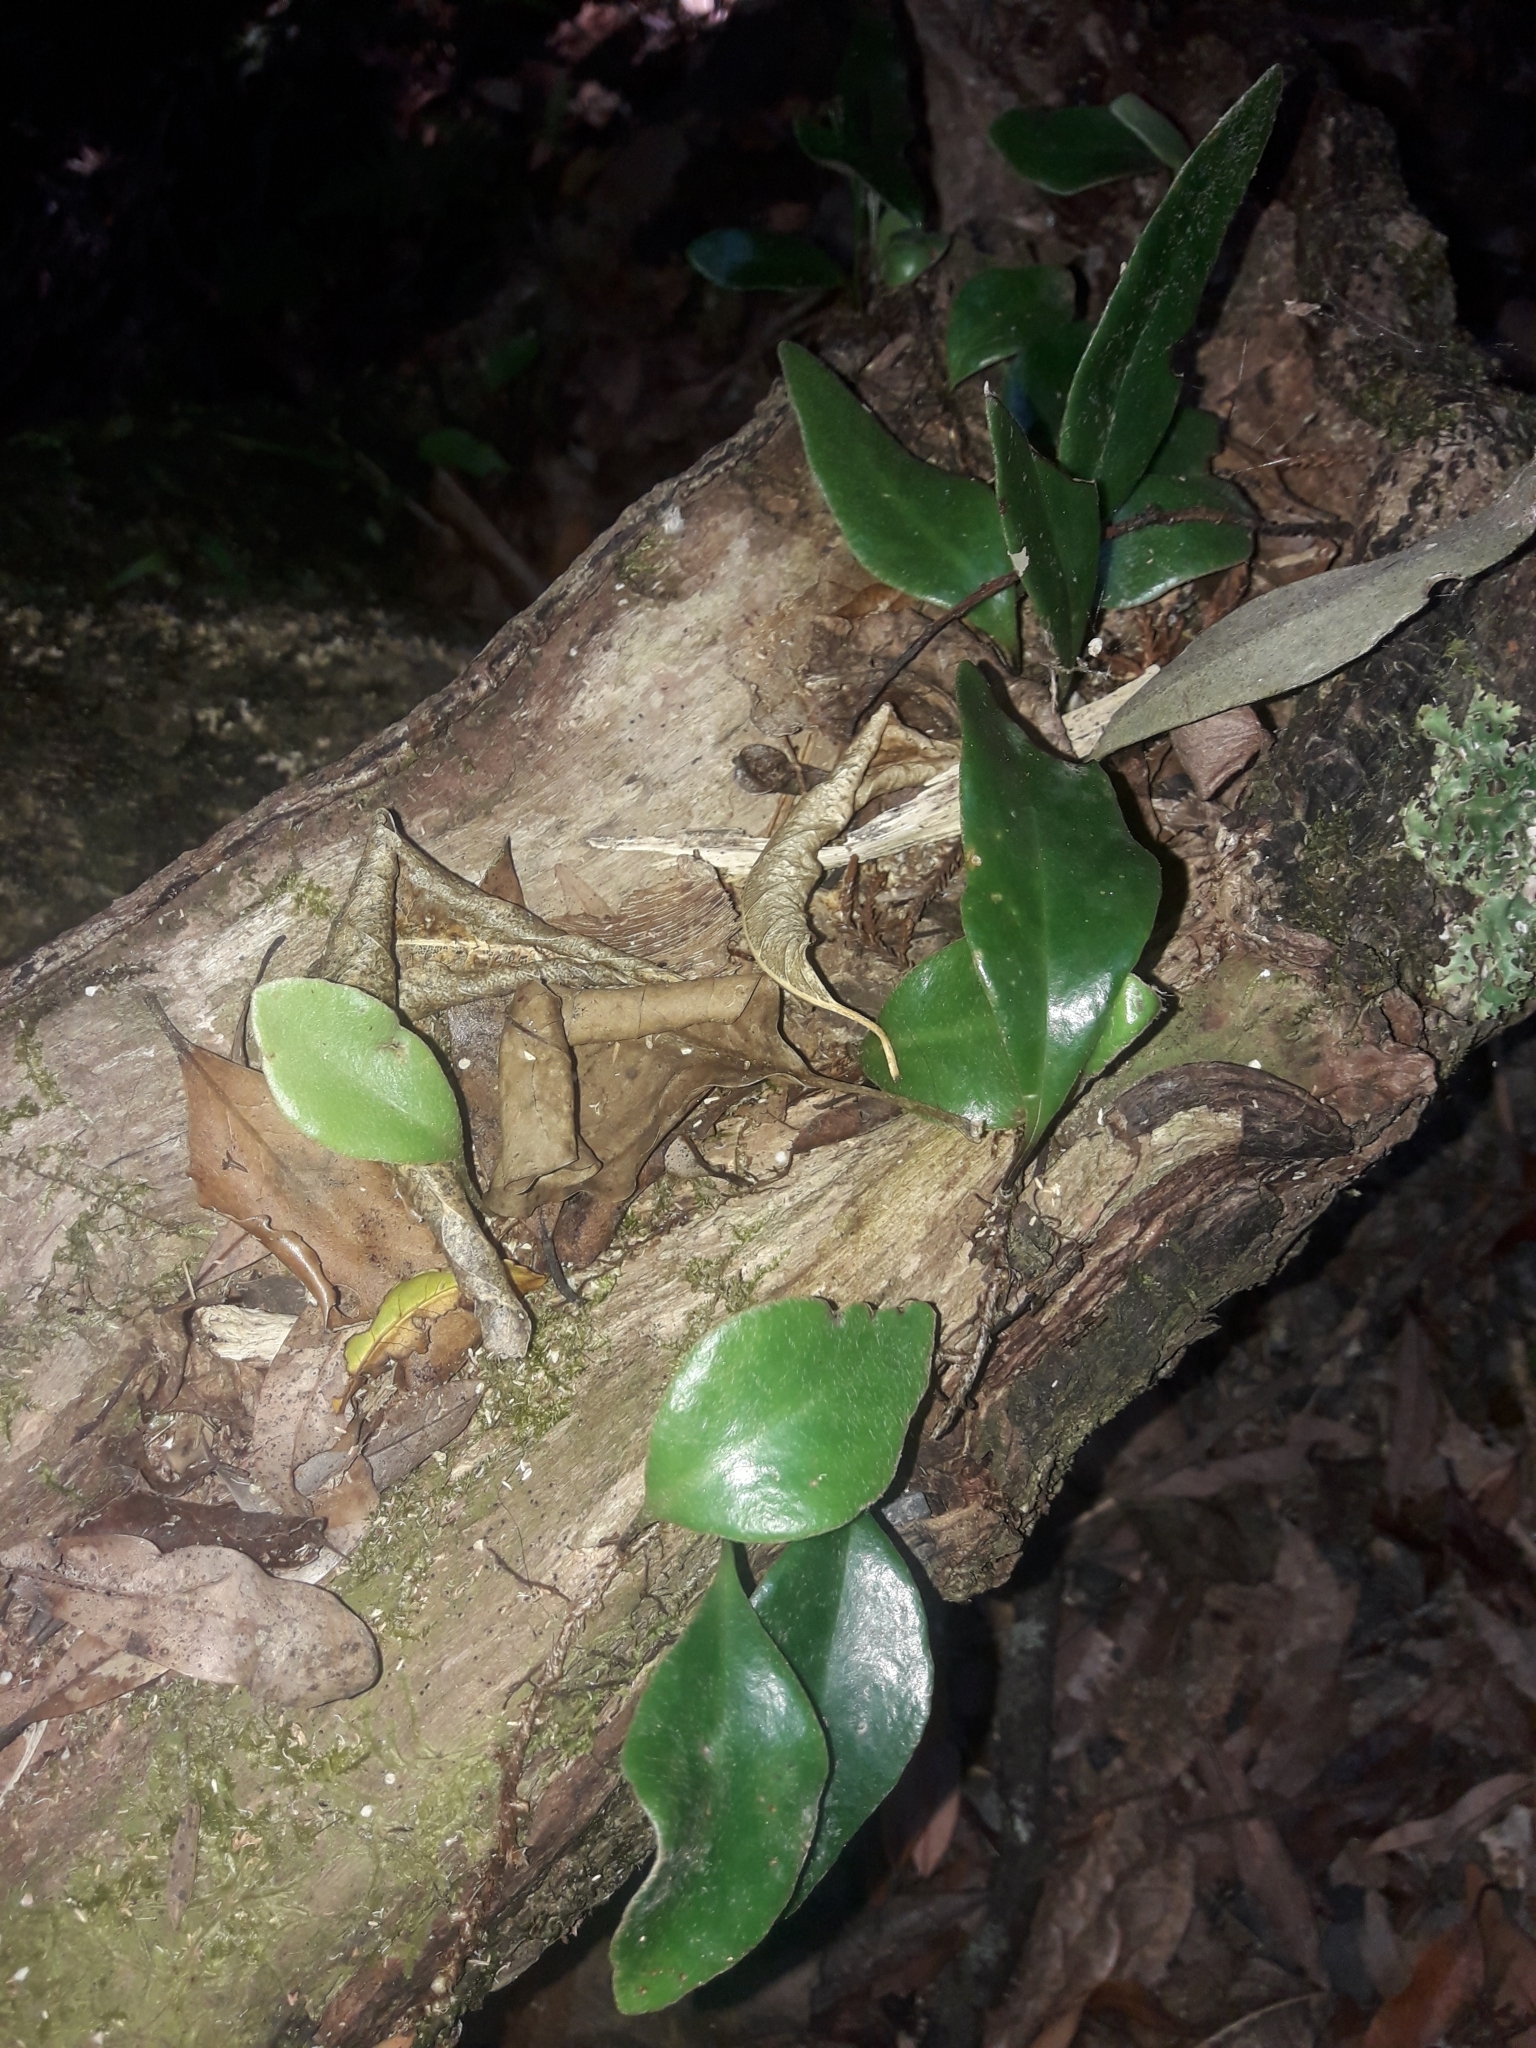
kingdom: Plantae
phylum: Tracheophyta
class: Polypodiopsida
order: Polypodiales
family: Polypodiaceae
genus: Pyrrosia
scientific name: Pyrrosia eleagnifolia
